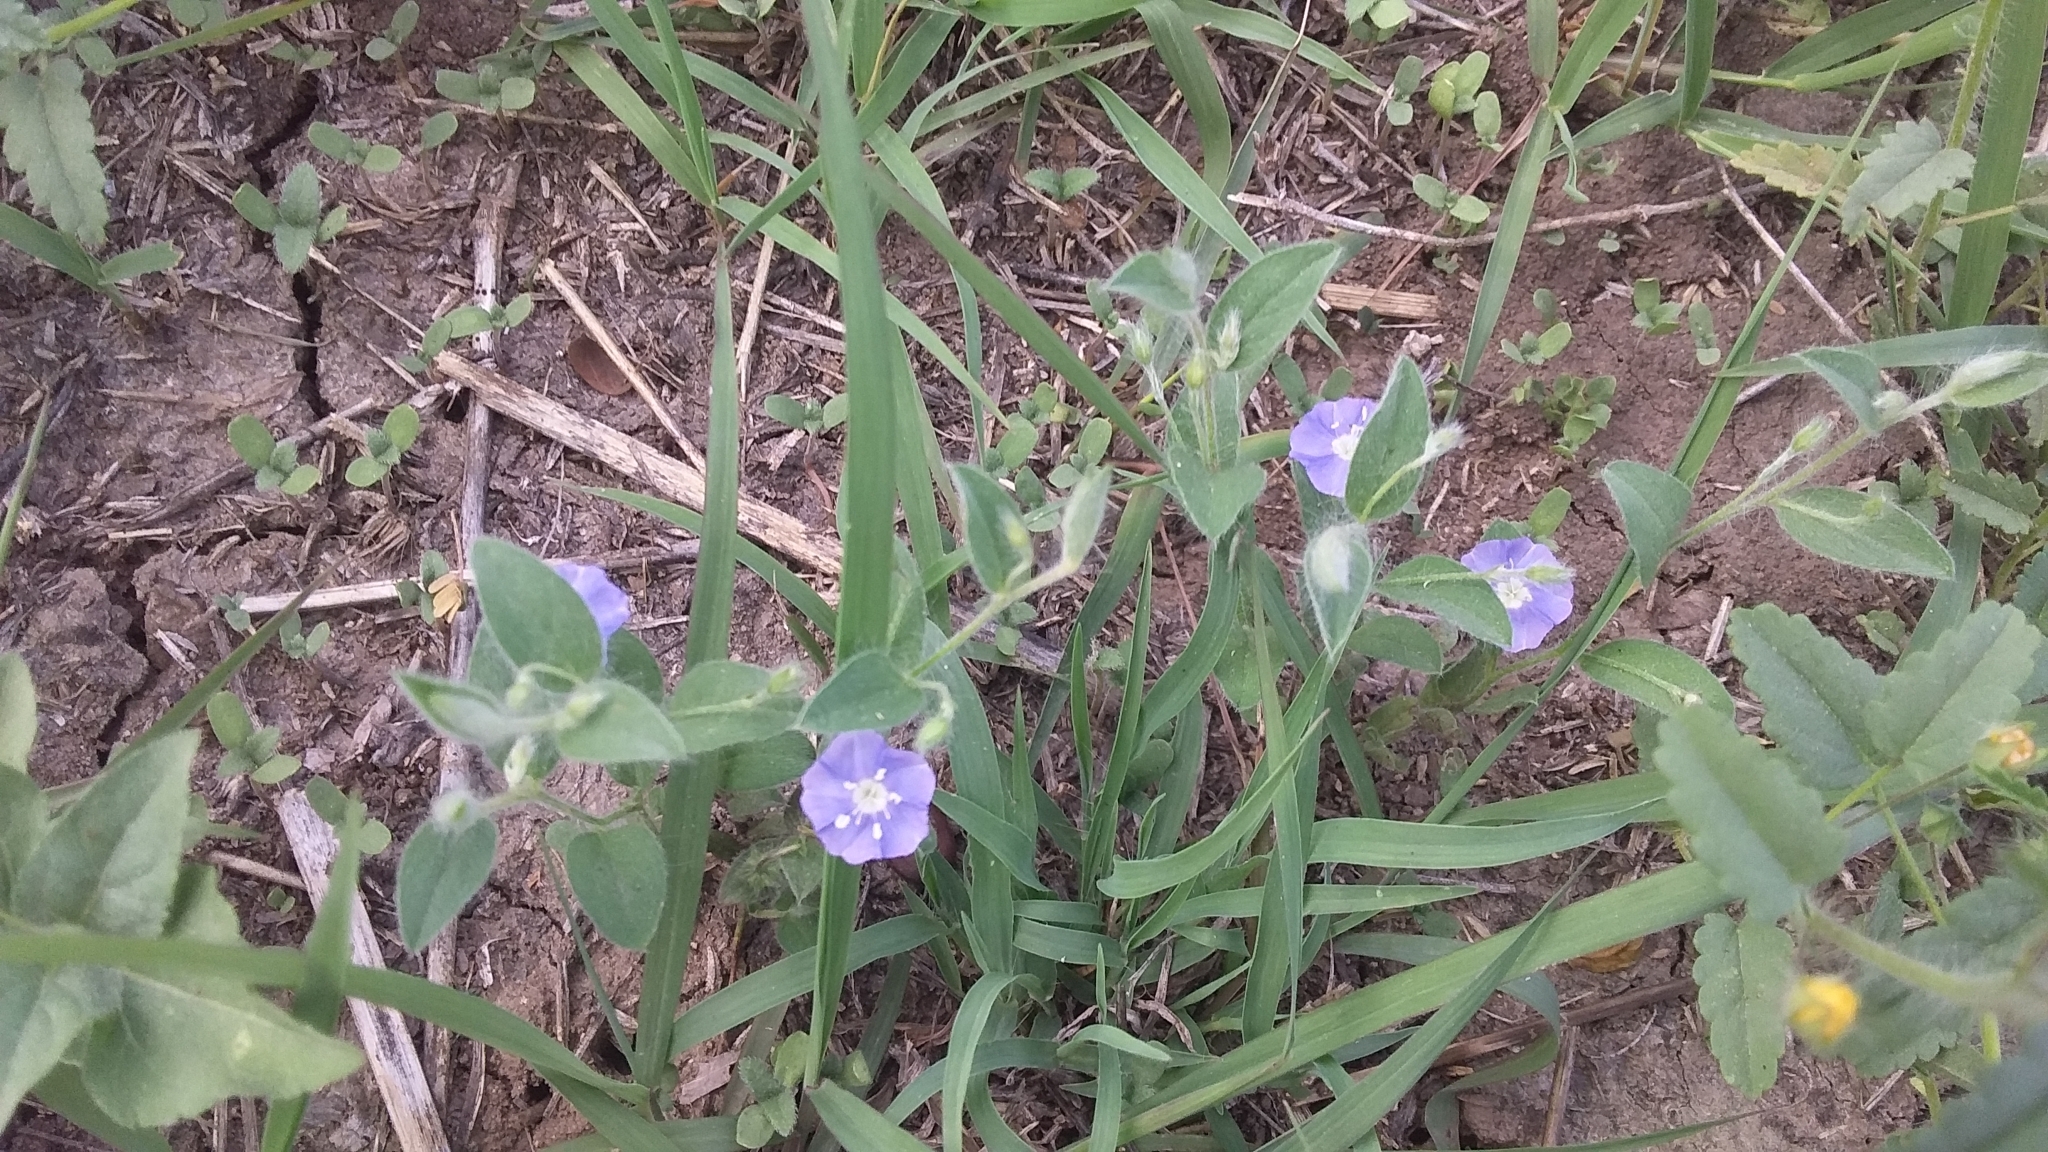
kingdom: Plantae
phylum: Tracheophyta
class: Magnoliopsida
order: Solanales
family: Convolvulaceae
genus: Evolvulus
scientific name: Evolvulus alsinoides
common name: Slender dwarf morning-glory
